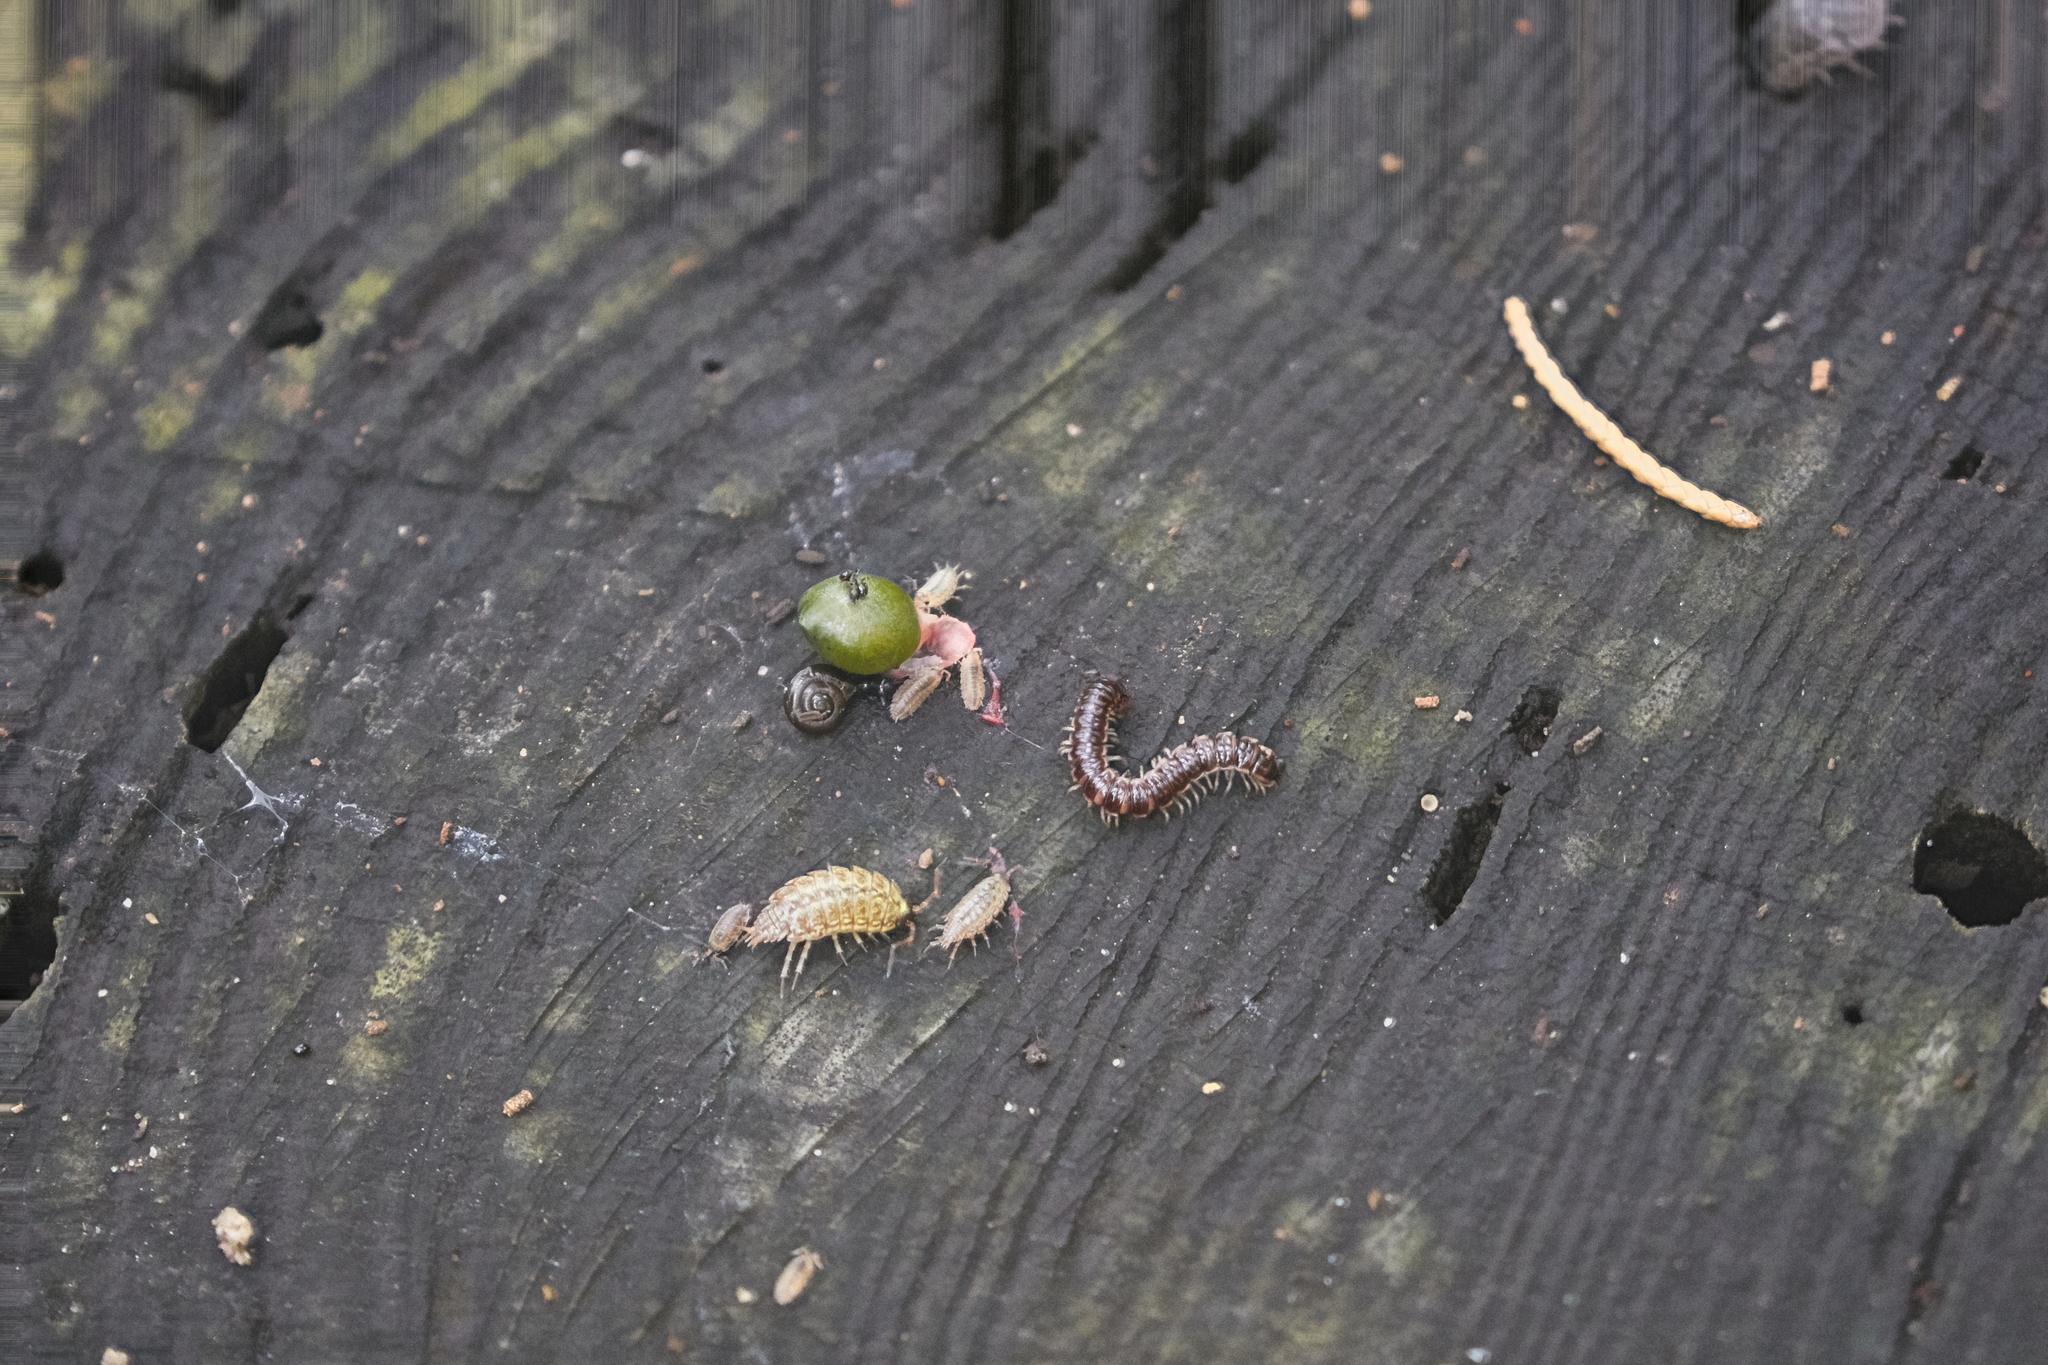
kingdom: Animalia
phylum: Arthropoda
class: Malacostraca
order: Isopoda
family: Philosciidae
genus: Philoscia
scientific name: Philoscia muscorum
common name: Common striped woodlouse
